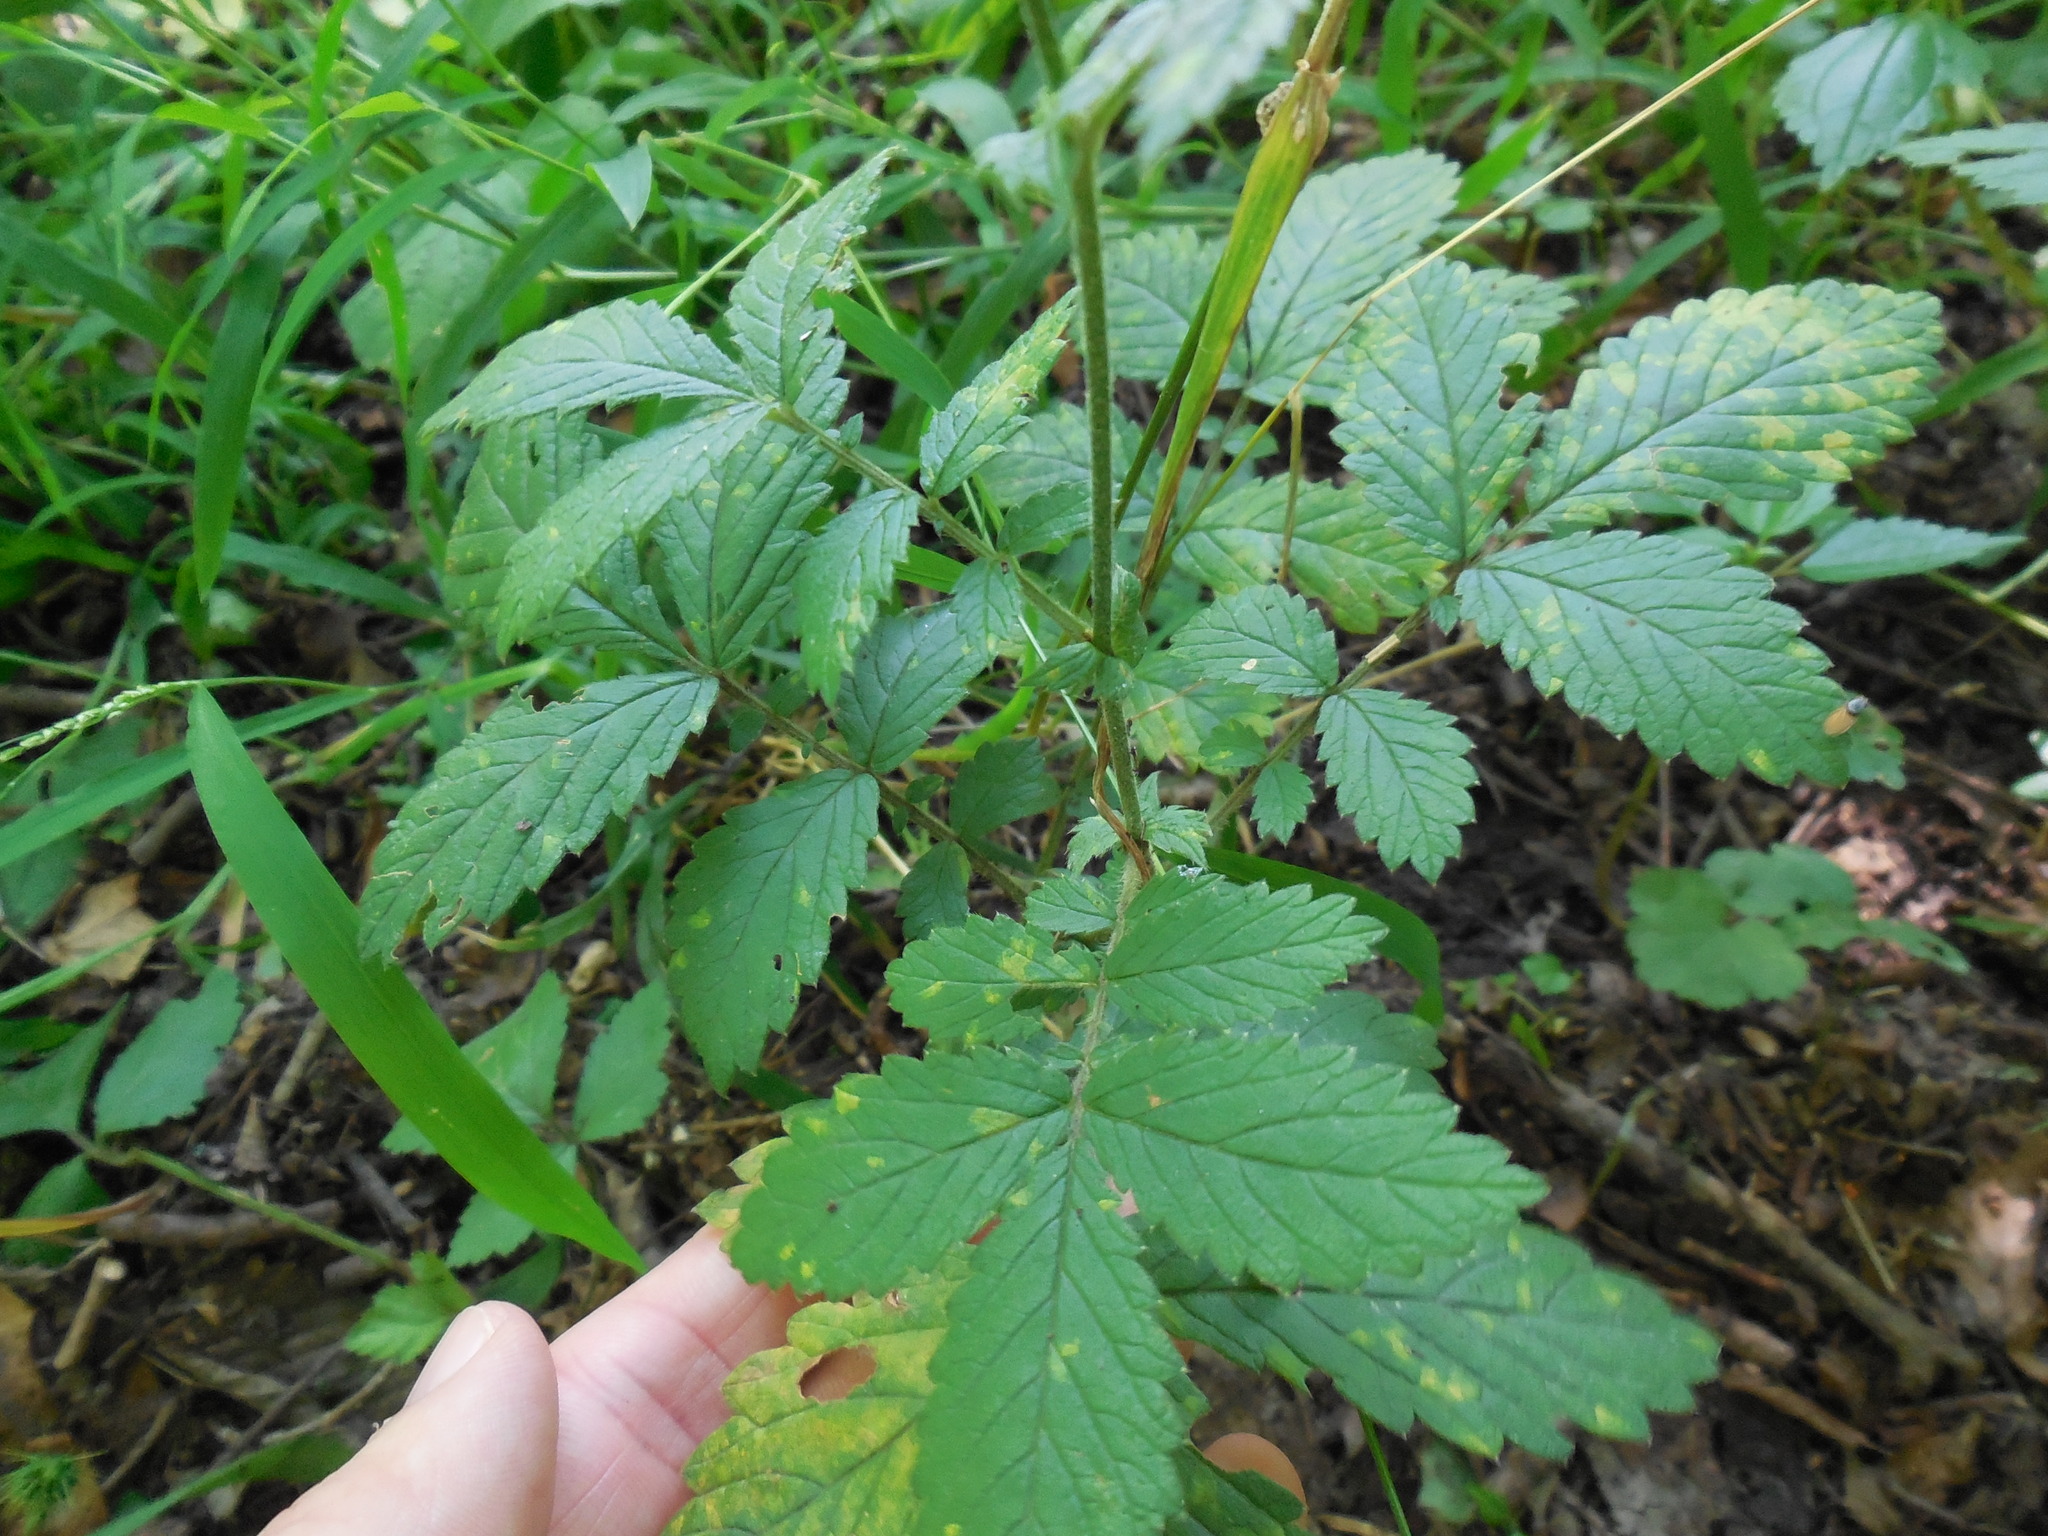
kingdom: Plantae
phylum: Tracheophyta
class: Magnoliopsida
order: Rosales
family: Rosaceae
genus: Agrimonia
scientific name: Agrimonia pubescens
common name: Downy agrimony
